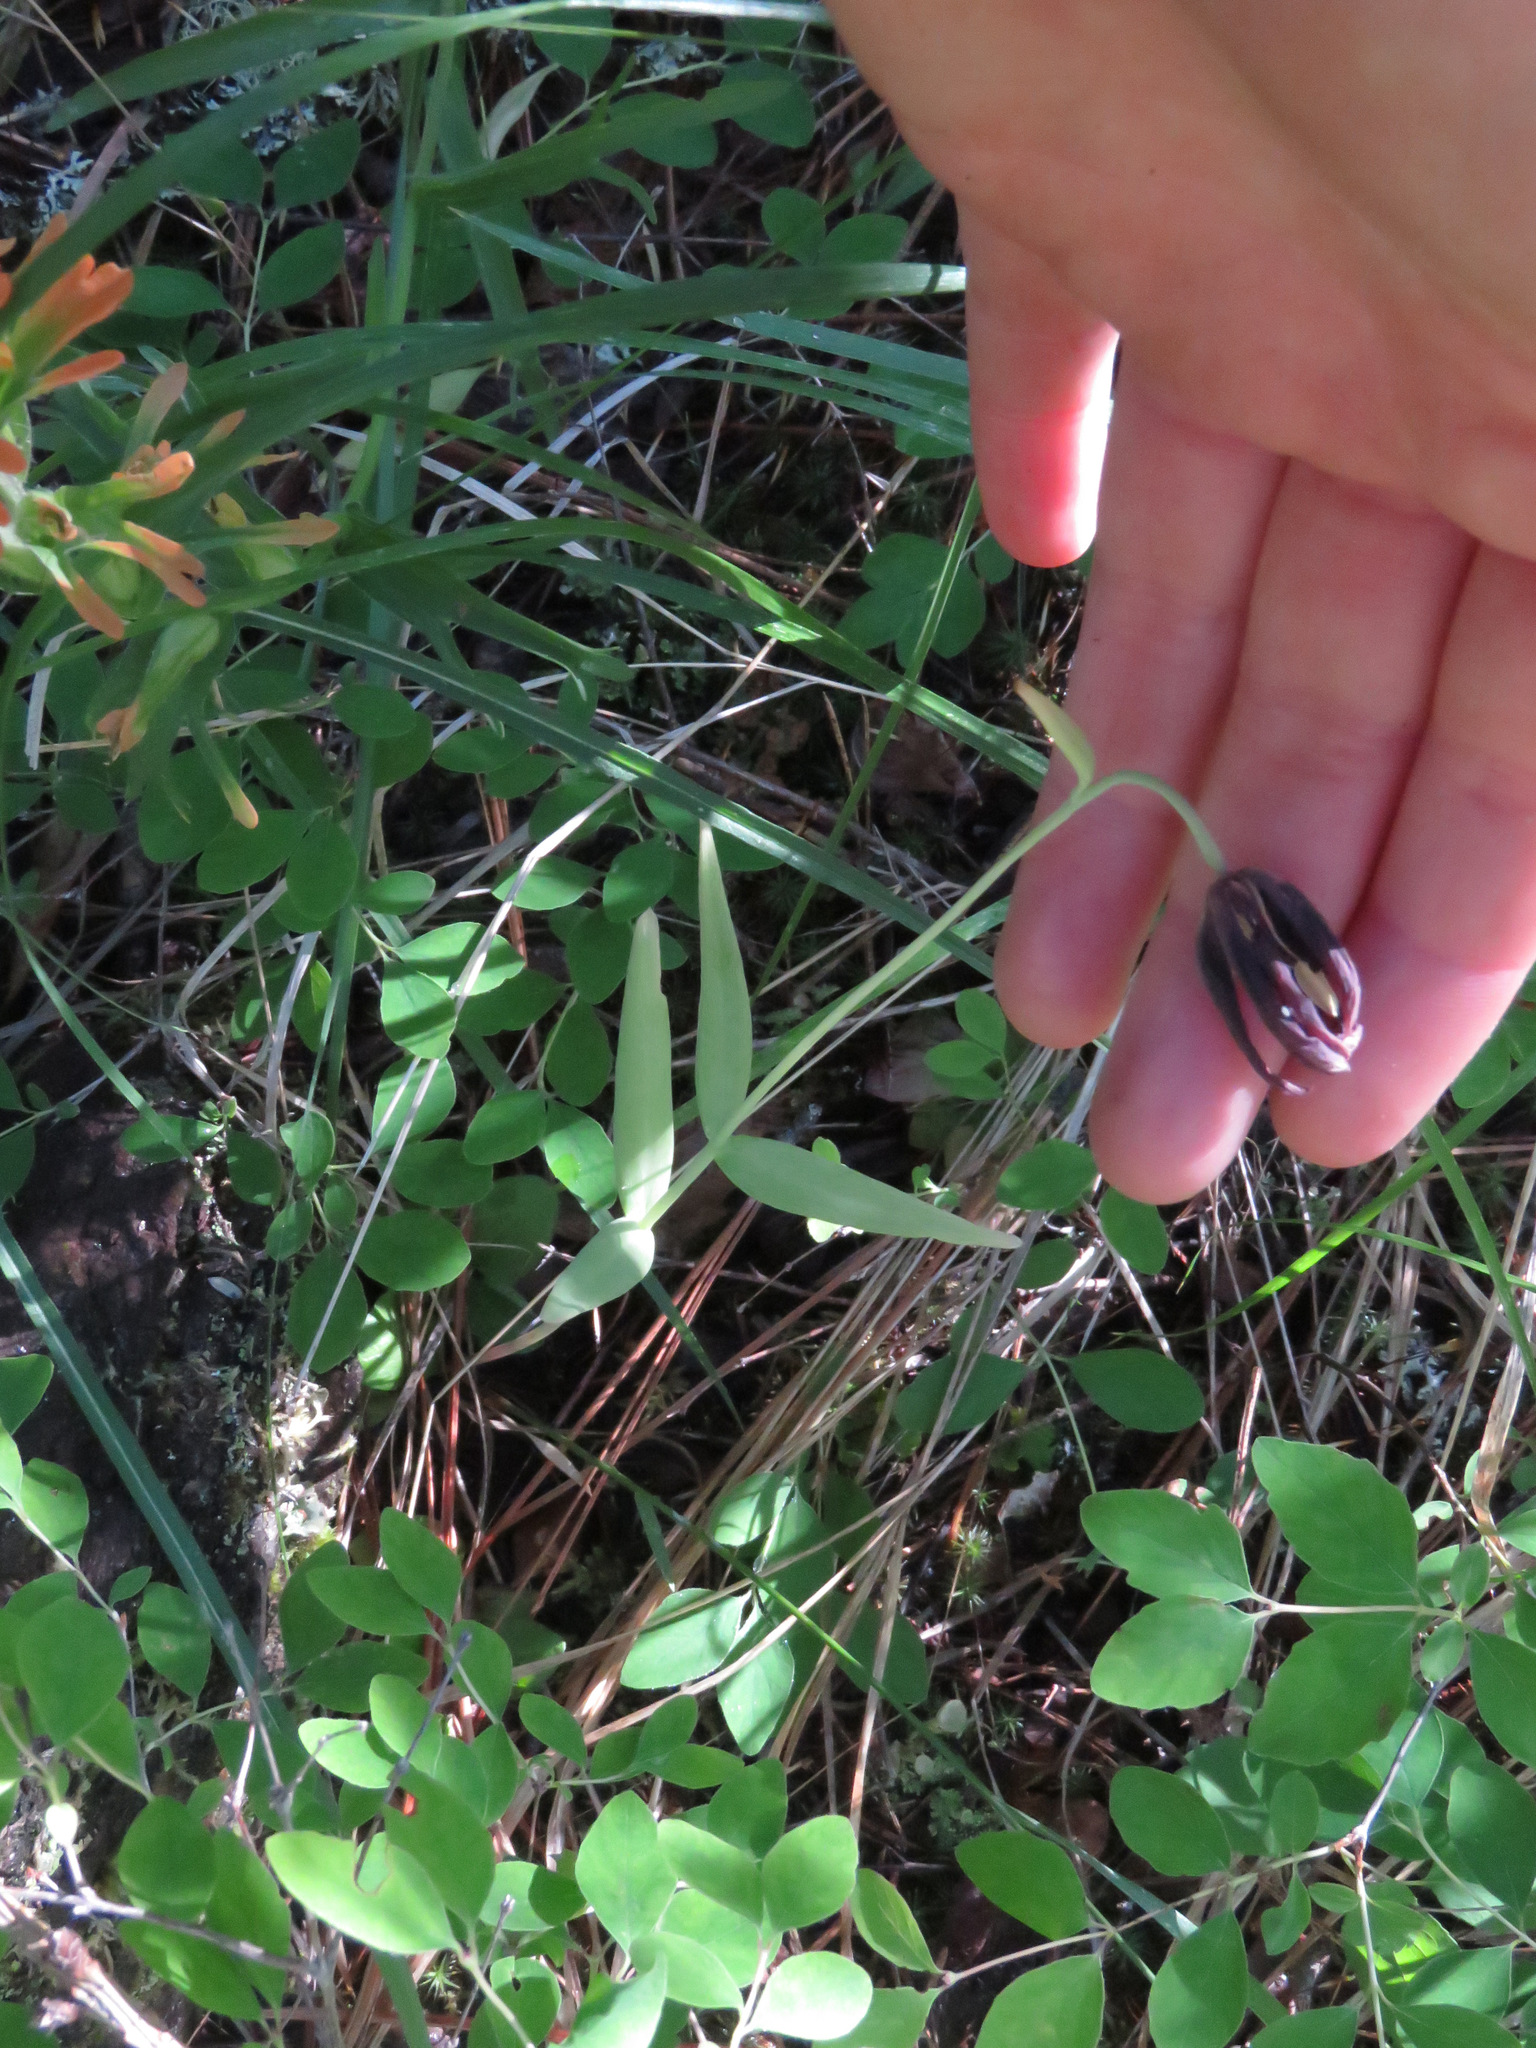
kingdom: Plantae
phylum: Tracheophyta
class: Liliopsida
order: Liliales
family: Liliaceae
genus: Fritillaria
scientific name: Fritillaria affinis
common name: Ojai fritillary
